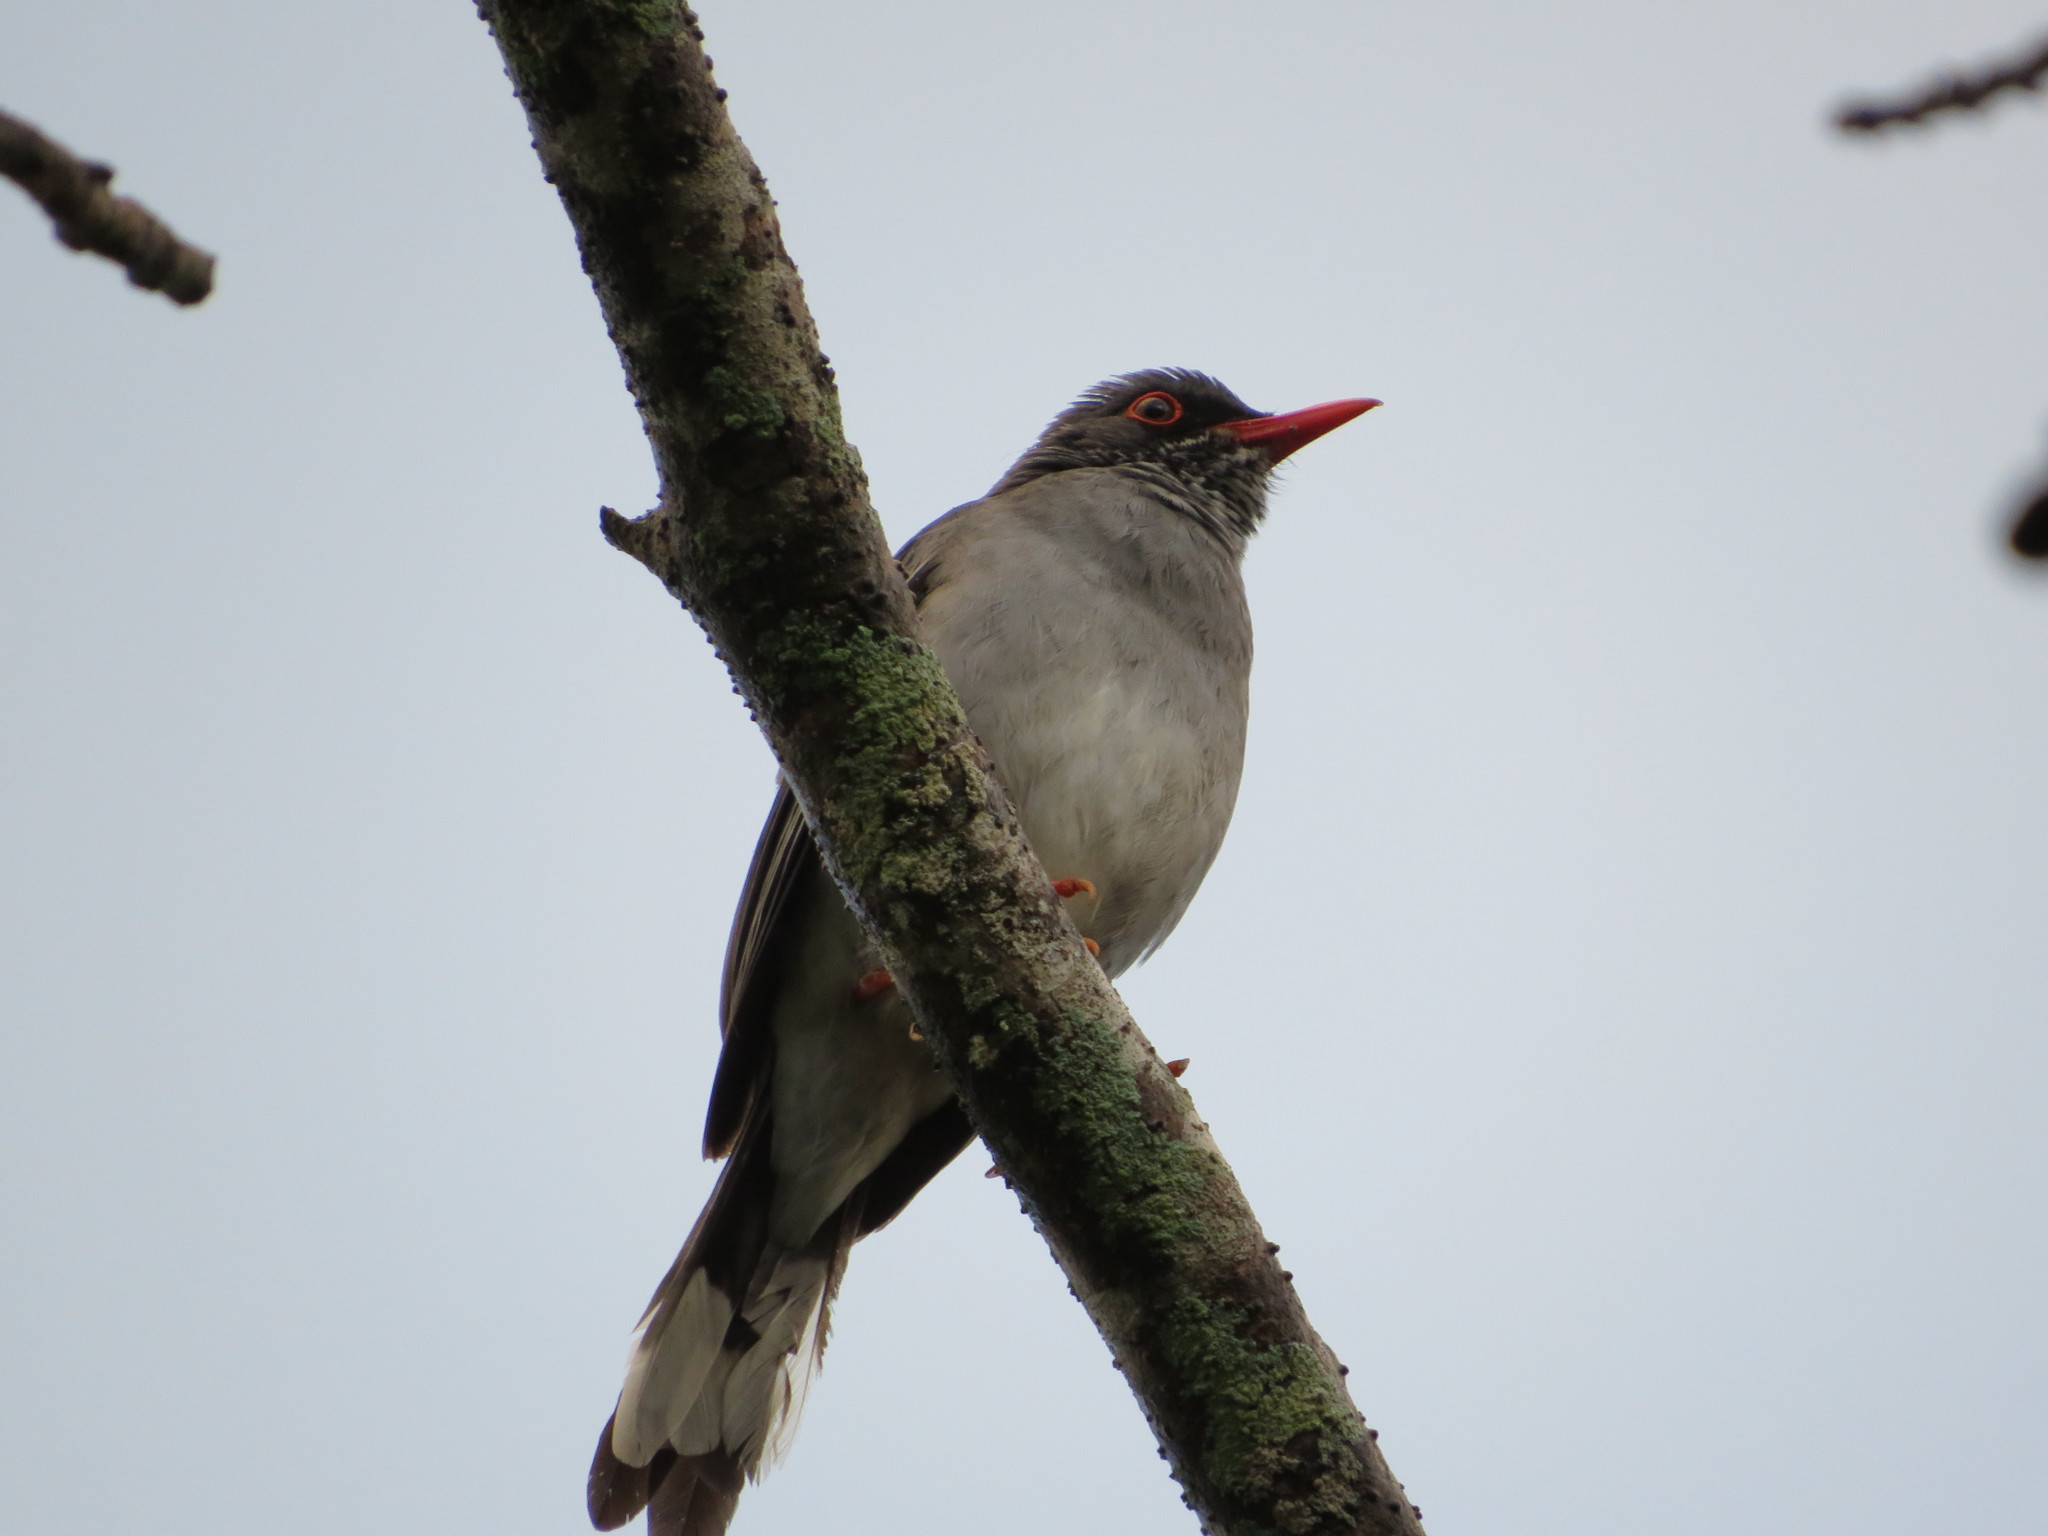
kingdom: Animalia
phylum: Chordata
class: Aves
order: Passeriformes
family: Turdidae
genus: Turdus
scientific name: Turdus plumbeus
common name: Red-legged thrush
